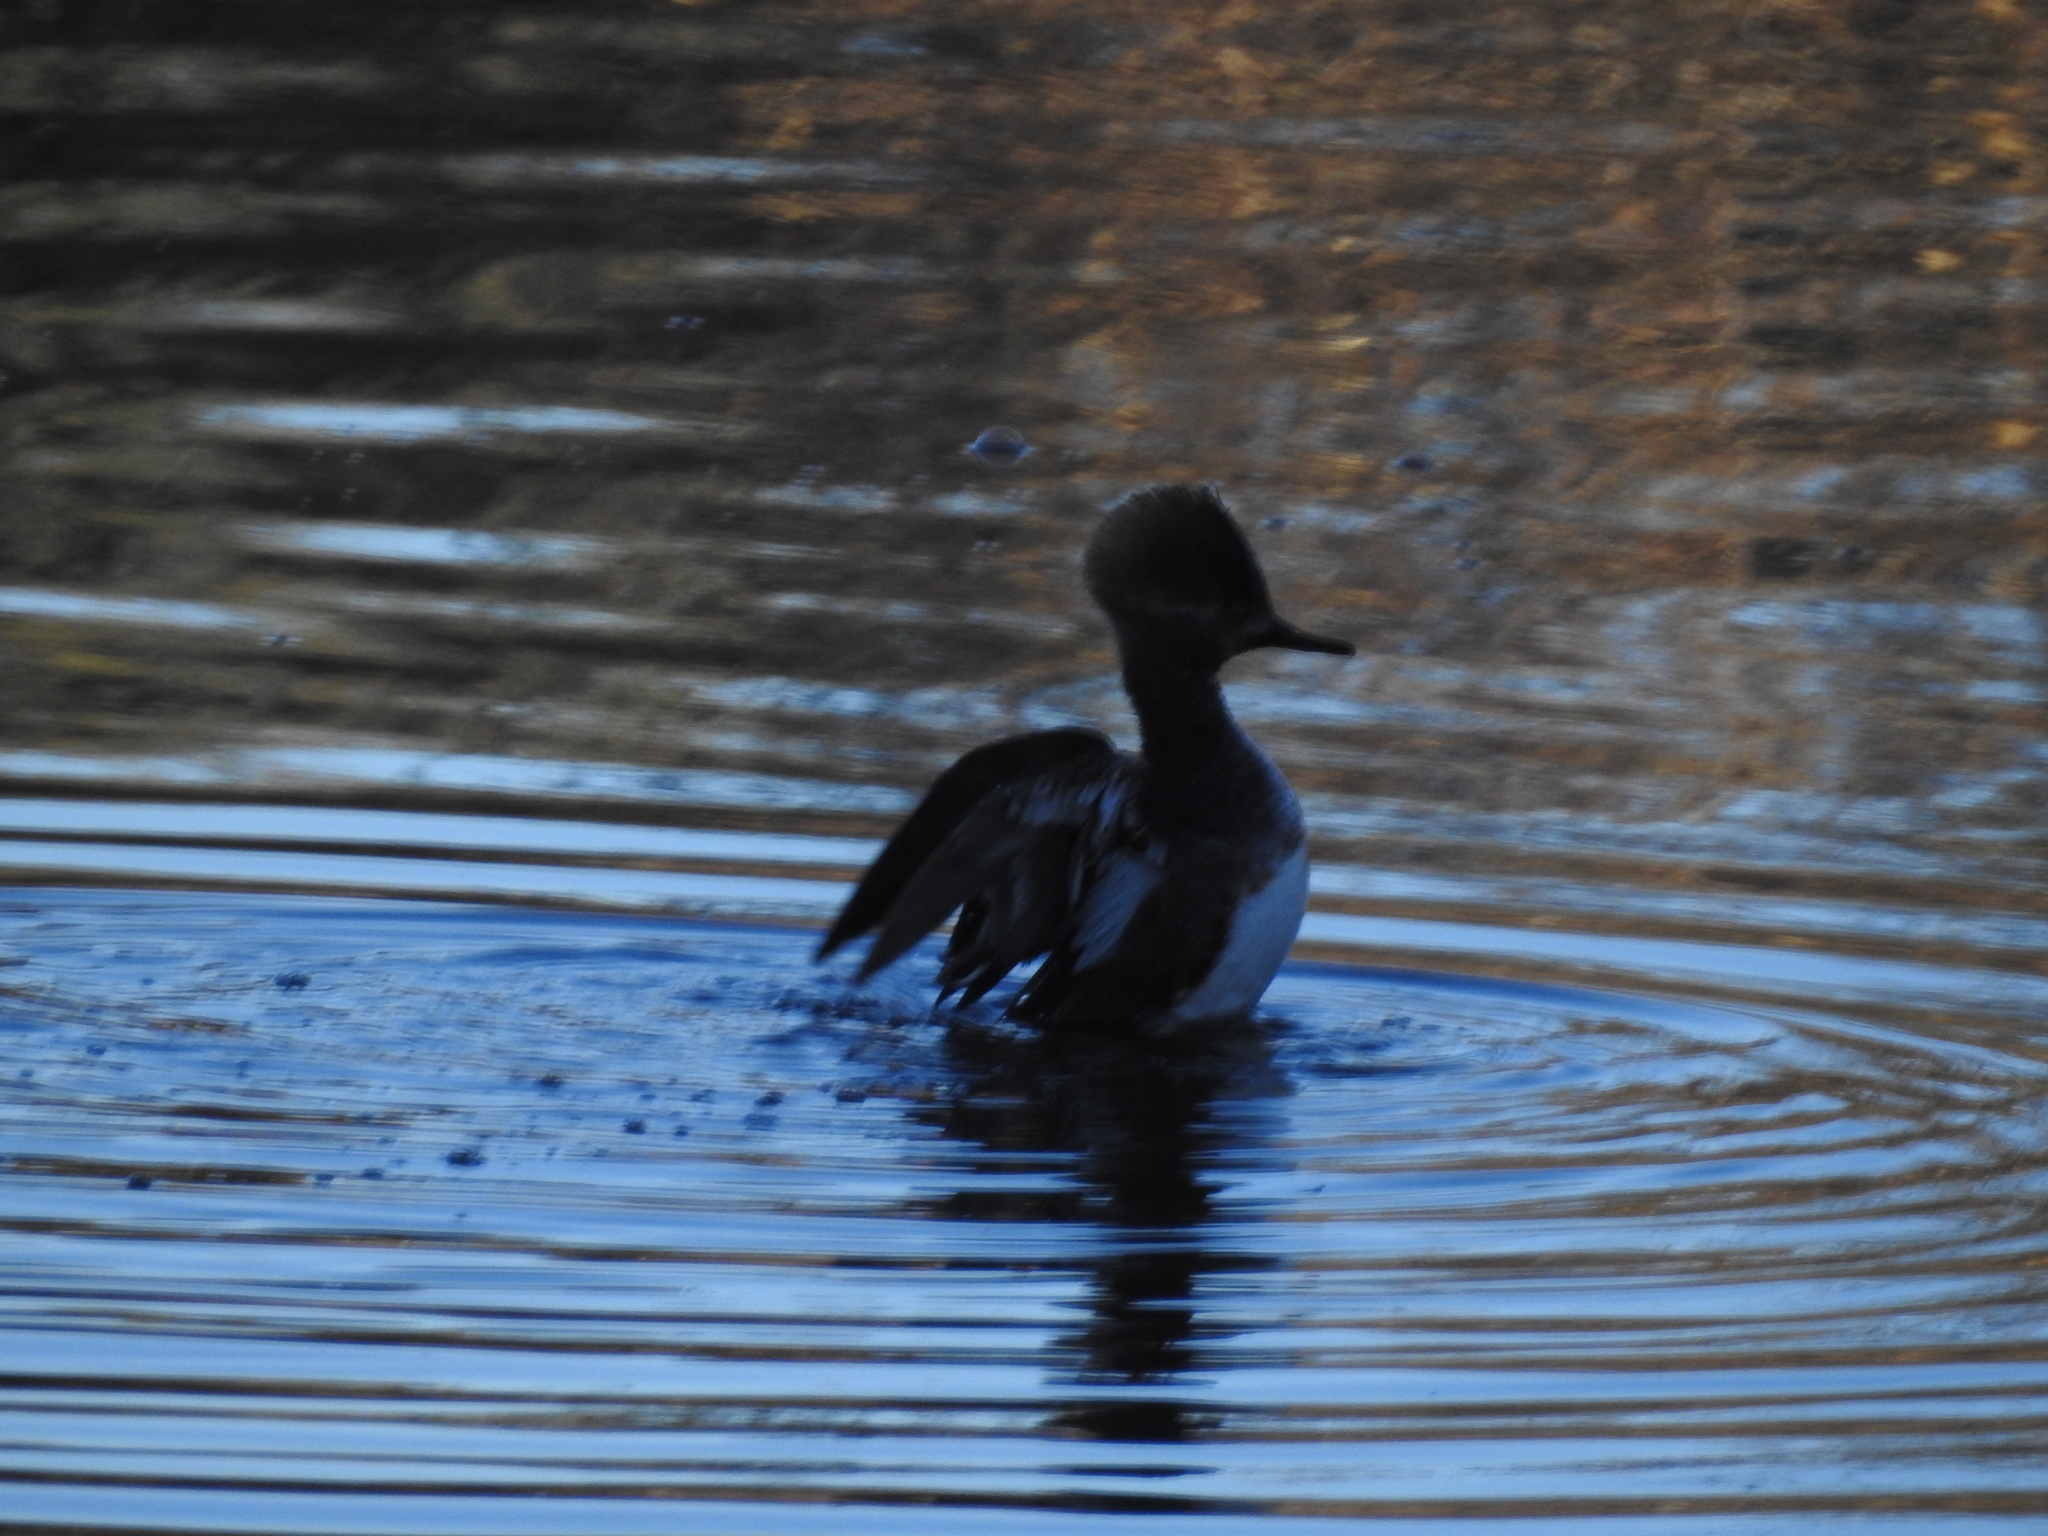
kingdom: Animalia
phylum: Chordata
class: Aves
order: Anseriformes
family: Anatidae
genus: Lophodytes
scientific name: Lophodytes cucullatus
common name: Hooded merganser
